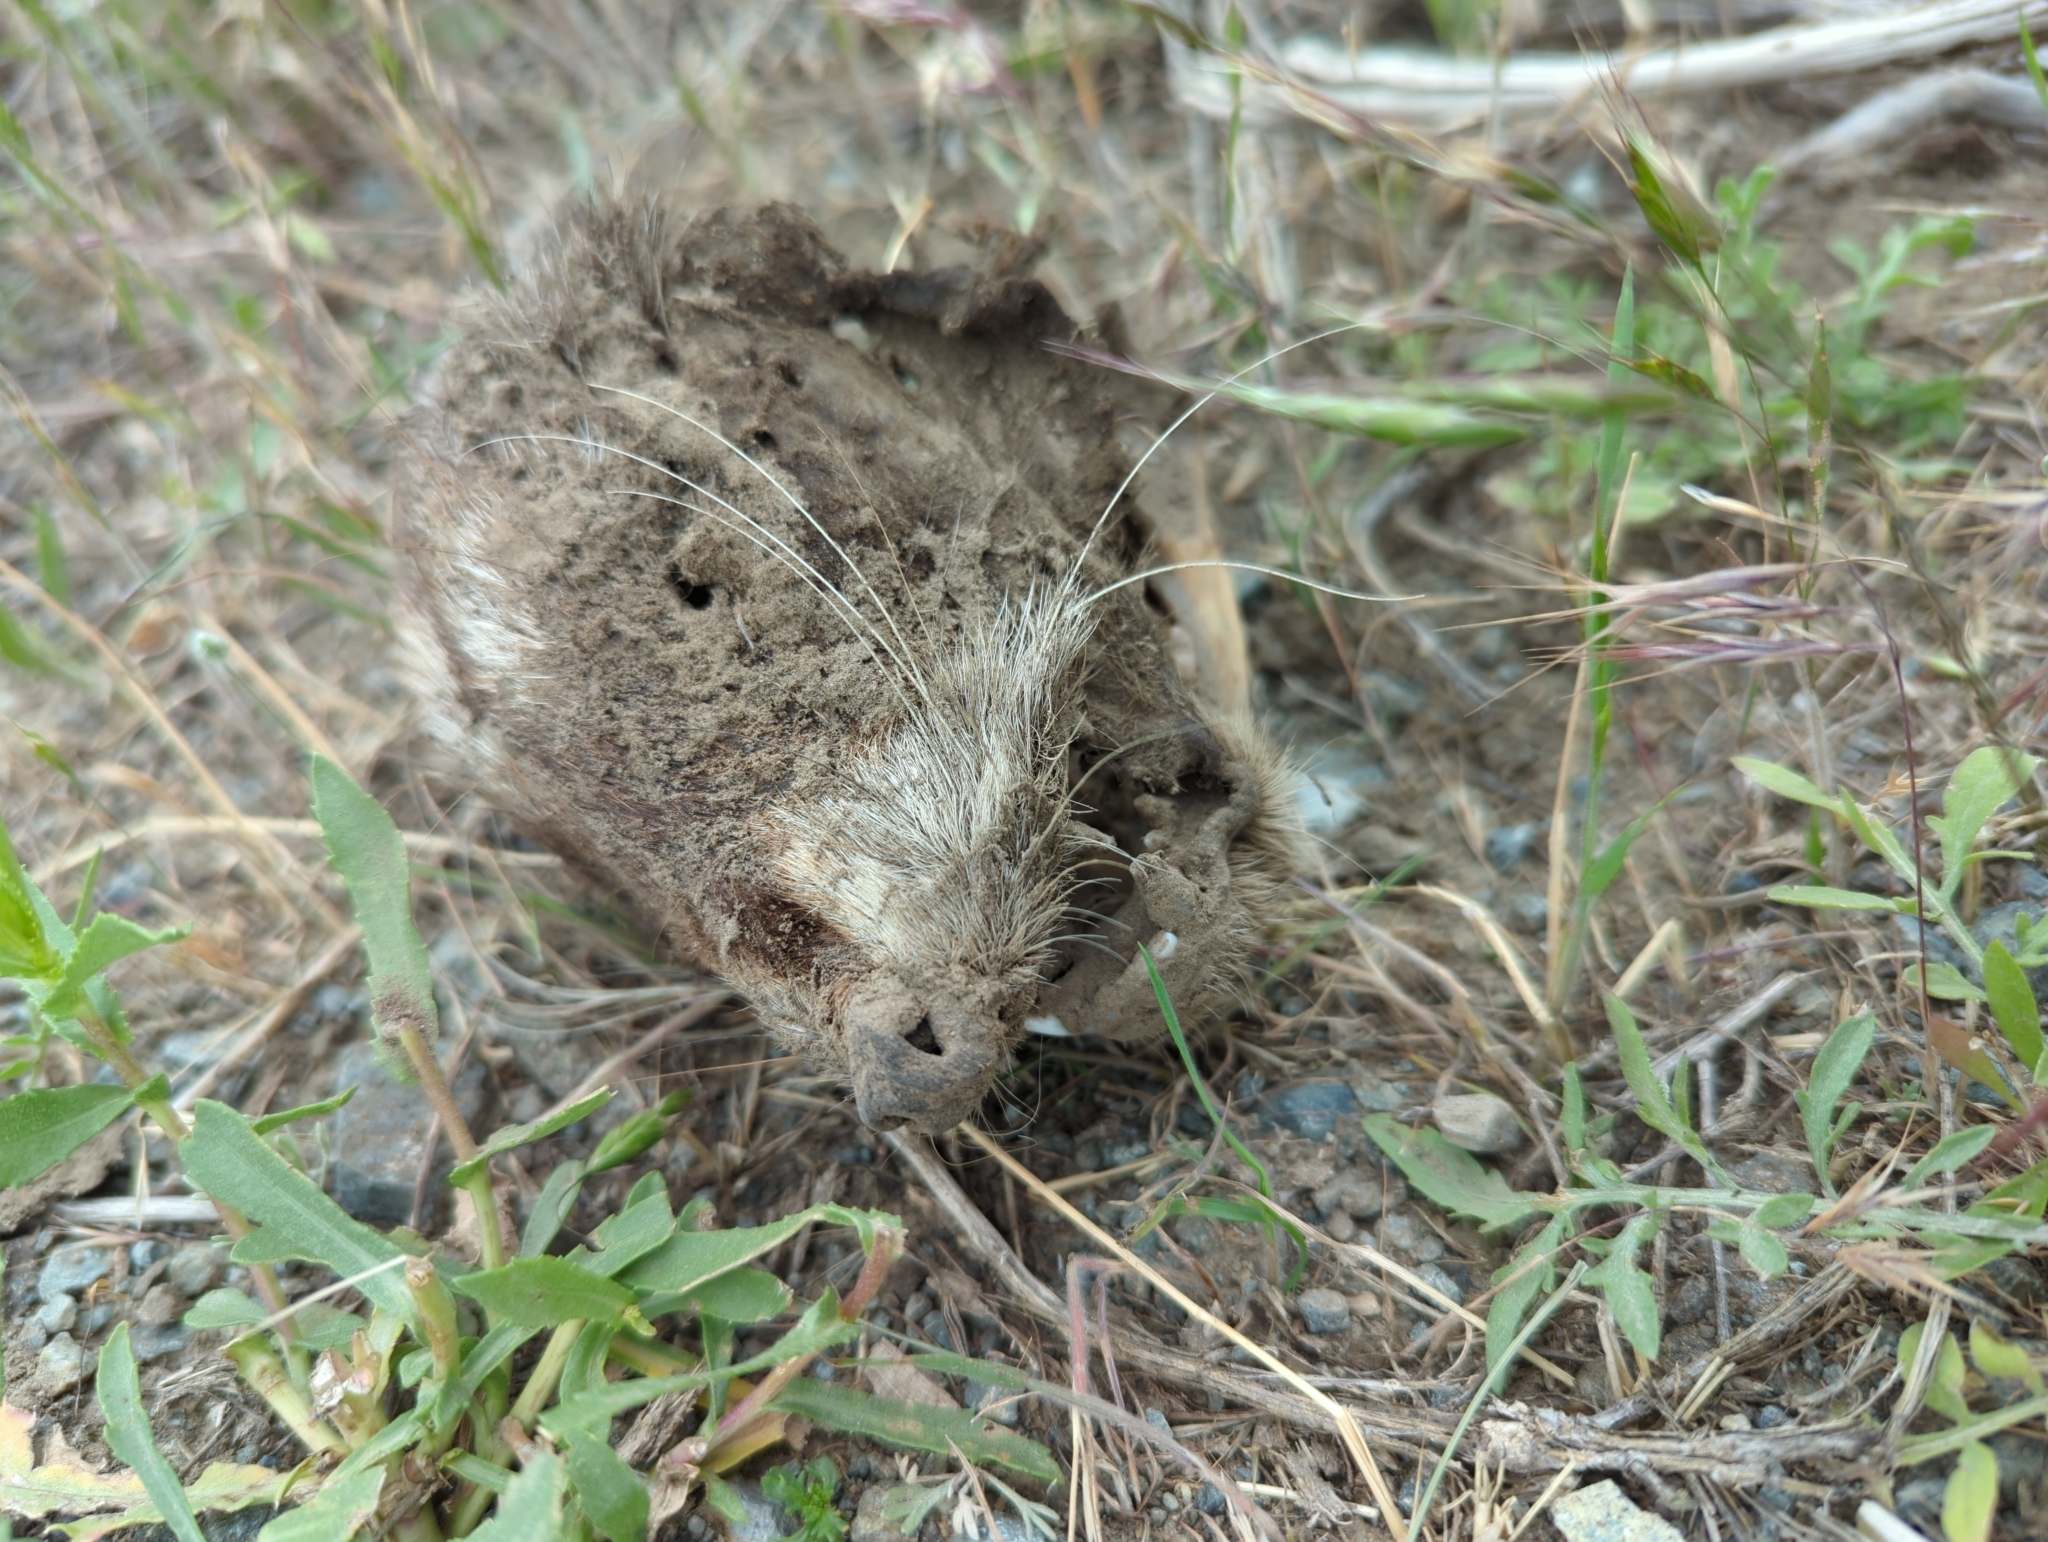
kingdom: Animalia
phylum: Chordata
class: Mammalia
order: Carnivora
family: Mustelidae
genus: Taxidea
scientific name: Taxidea taxus
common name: American badger
